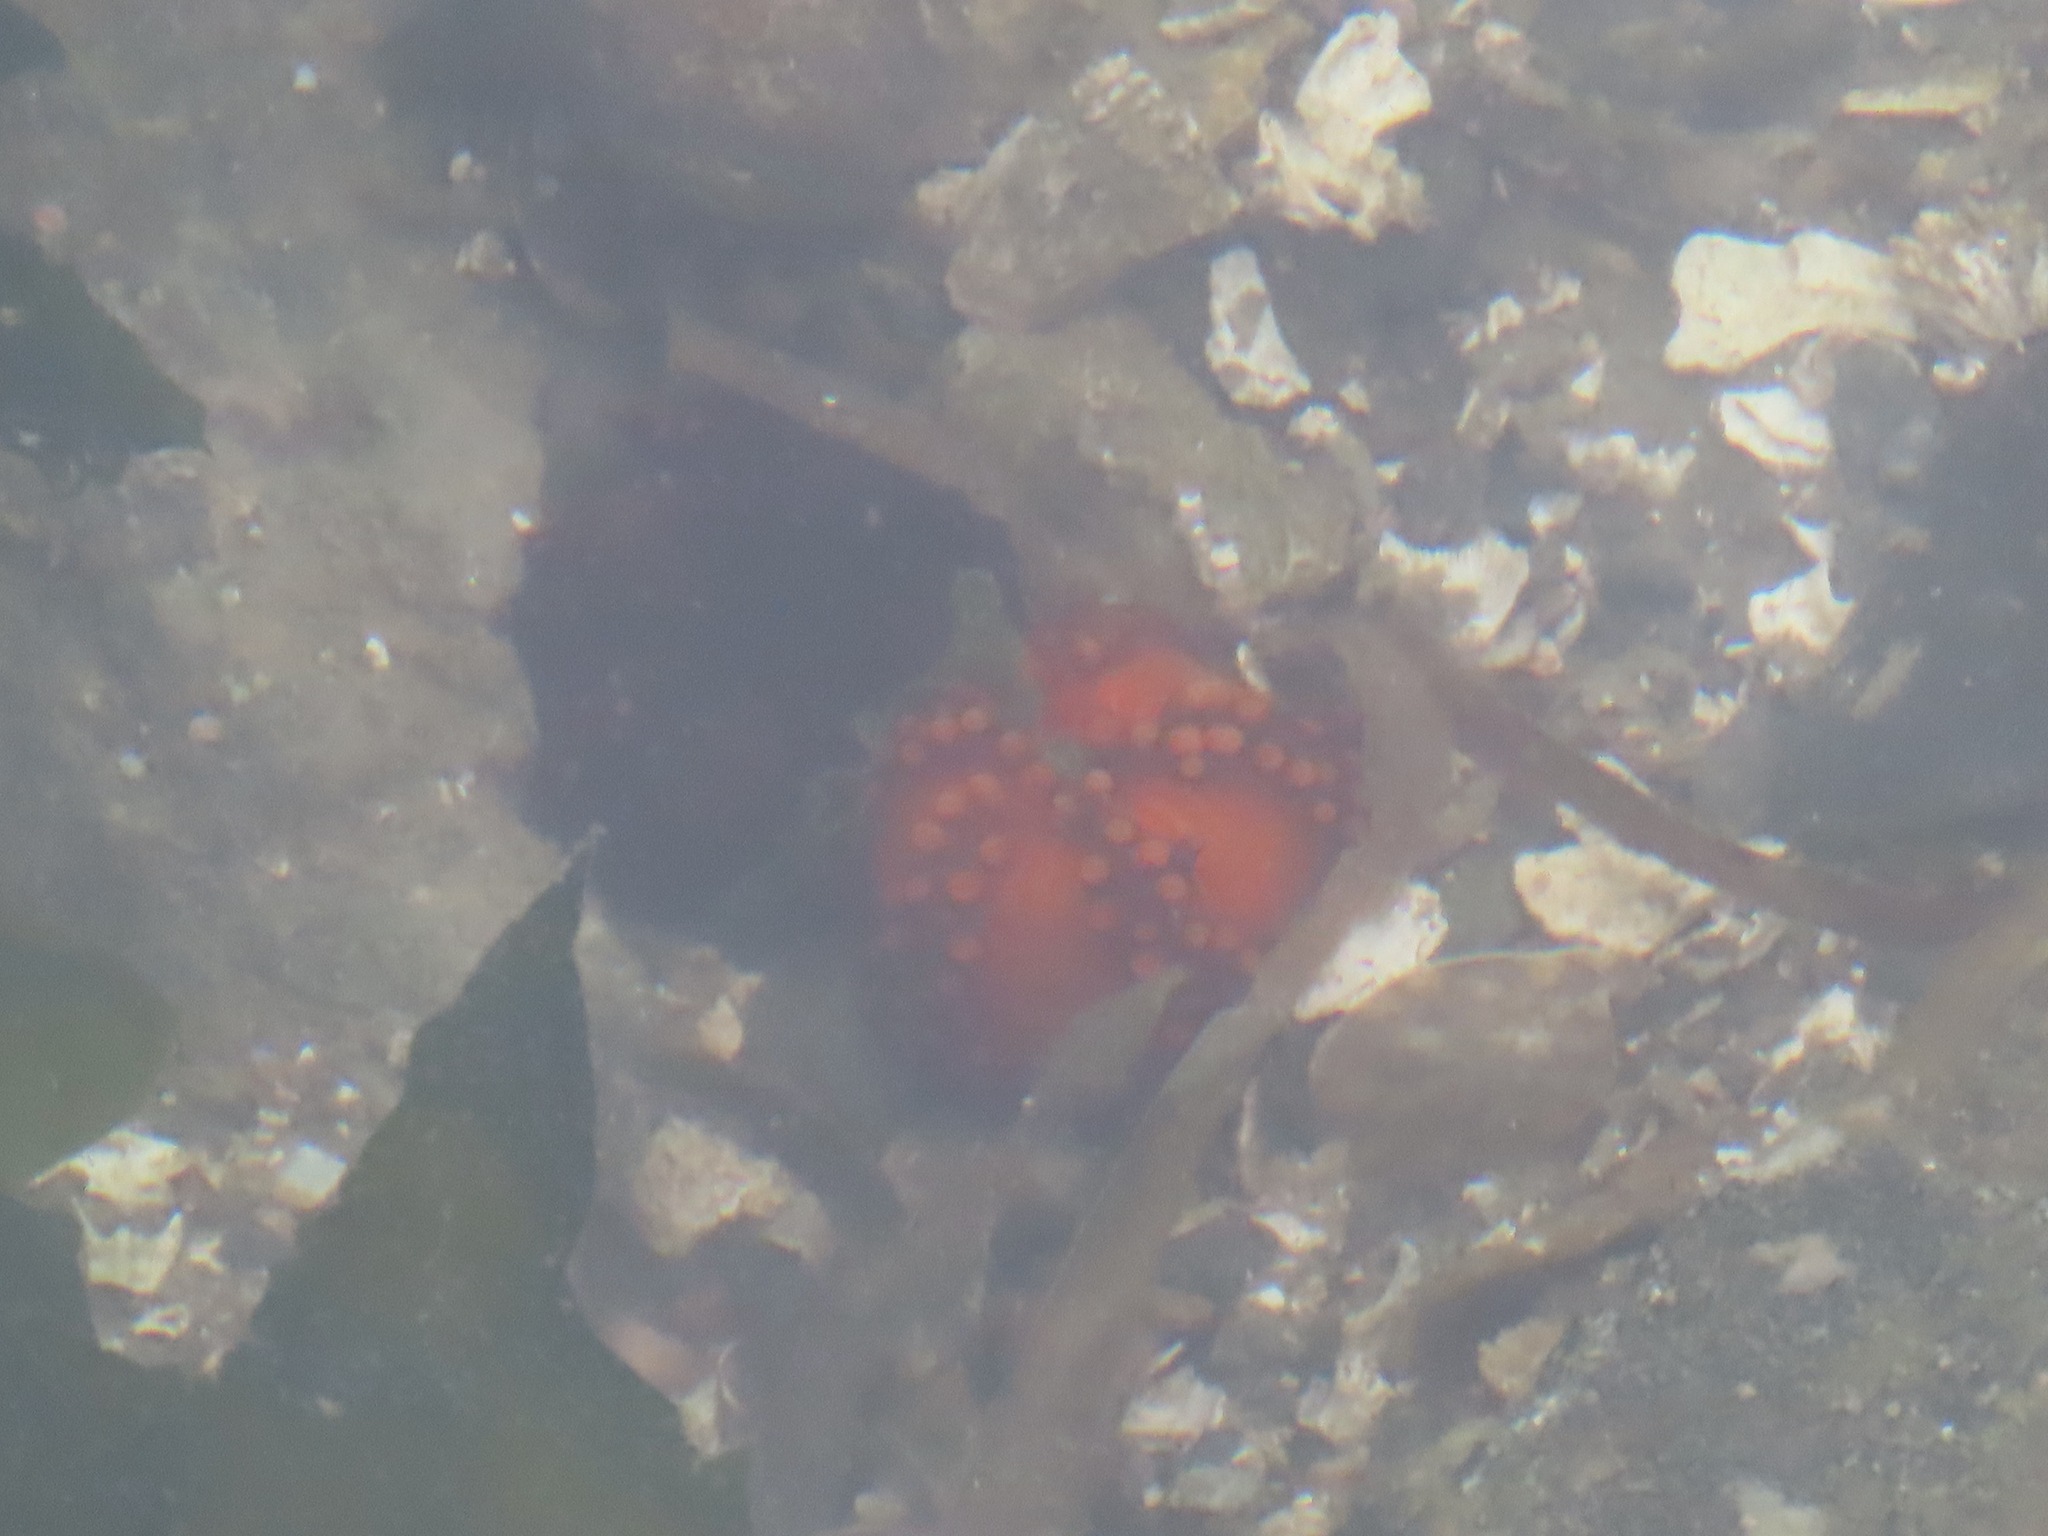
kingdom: Animalia
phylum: Echinodermata
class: Holothuroidea
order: Dendrochirotida
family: Cucumariidae
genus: Cucumaria
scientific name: Cucumaria miniata
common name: Orange sea cucumber
